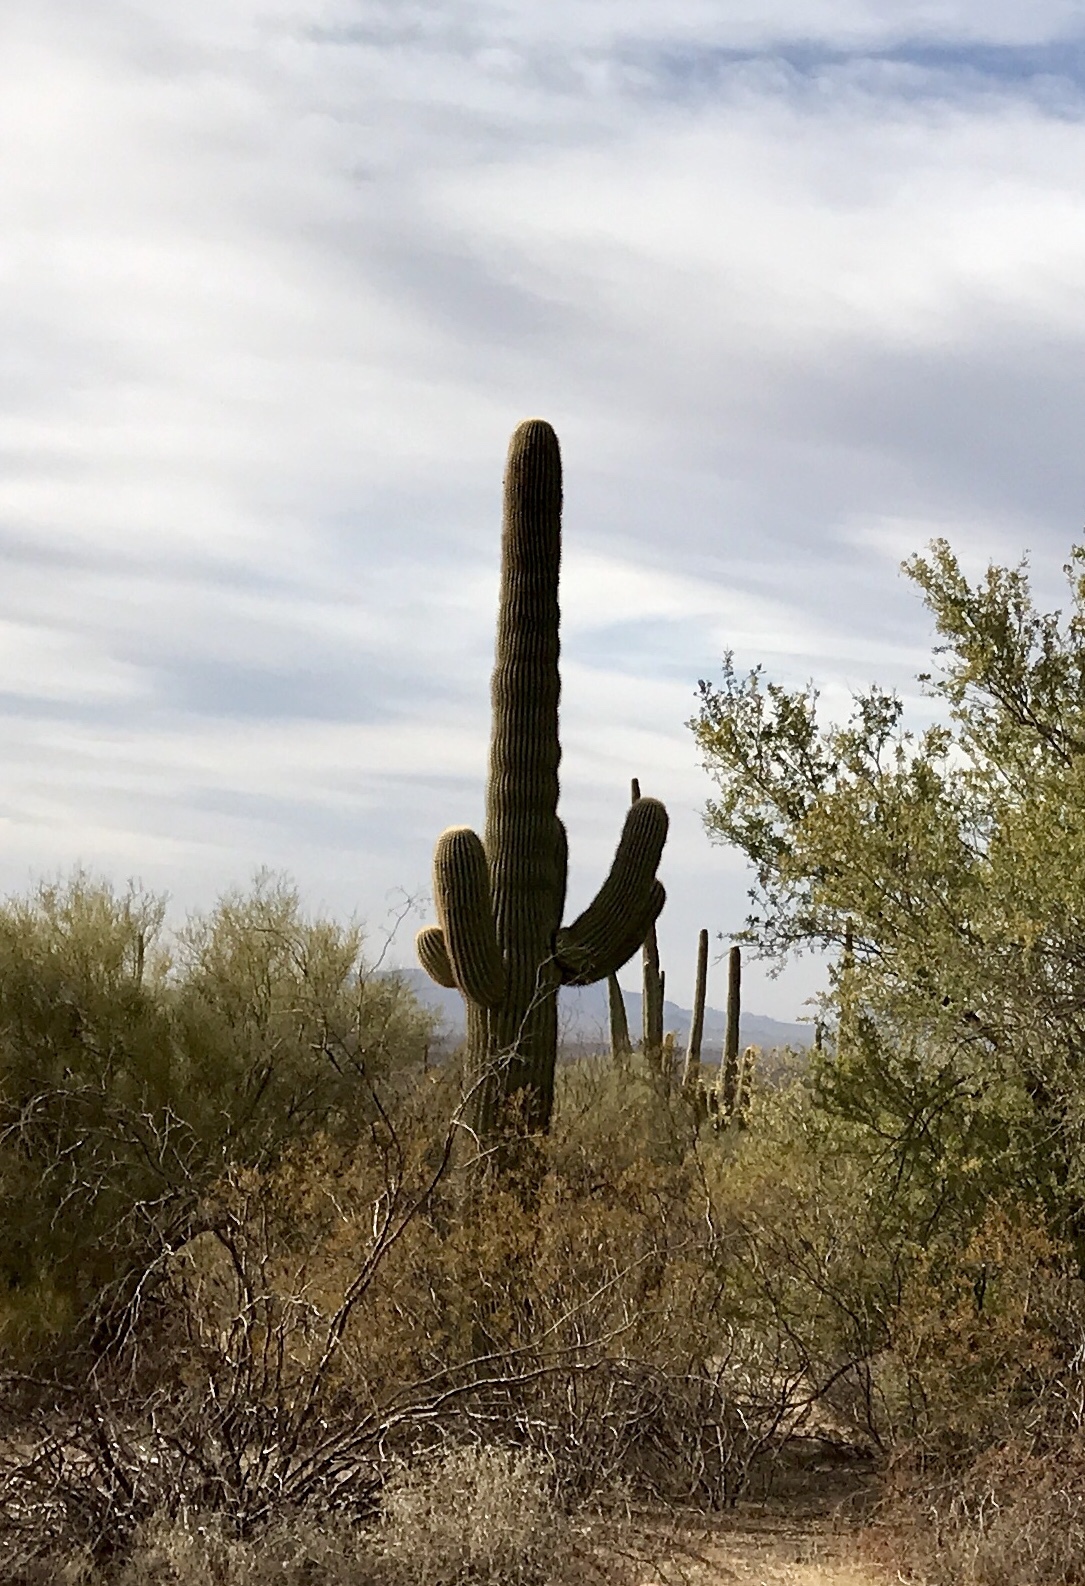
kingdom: Plantae
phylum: Tracheophyta
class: Magnoliopsida
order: Caryophyllales
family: Cactaceae
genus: Carnegiea
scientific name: Carnegiea gigantea
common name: Saguaro
